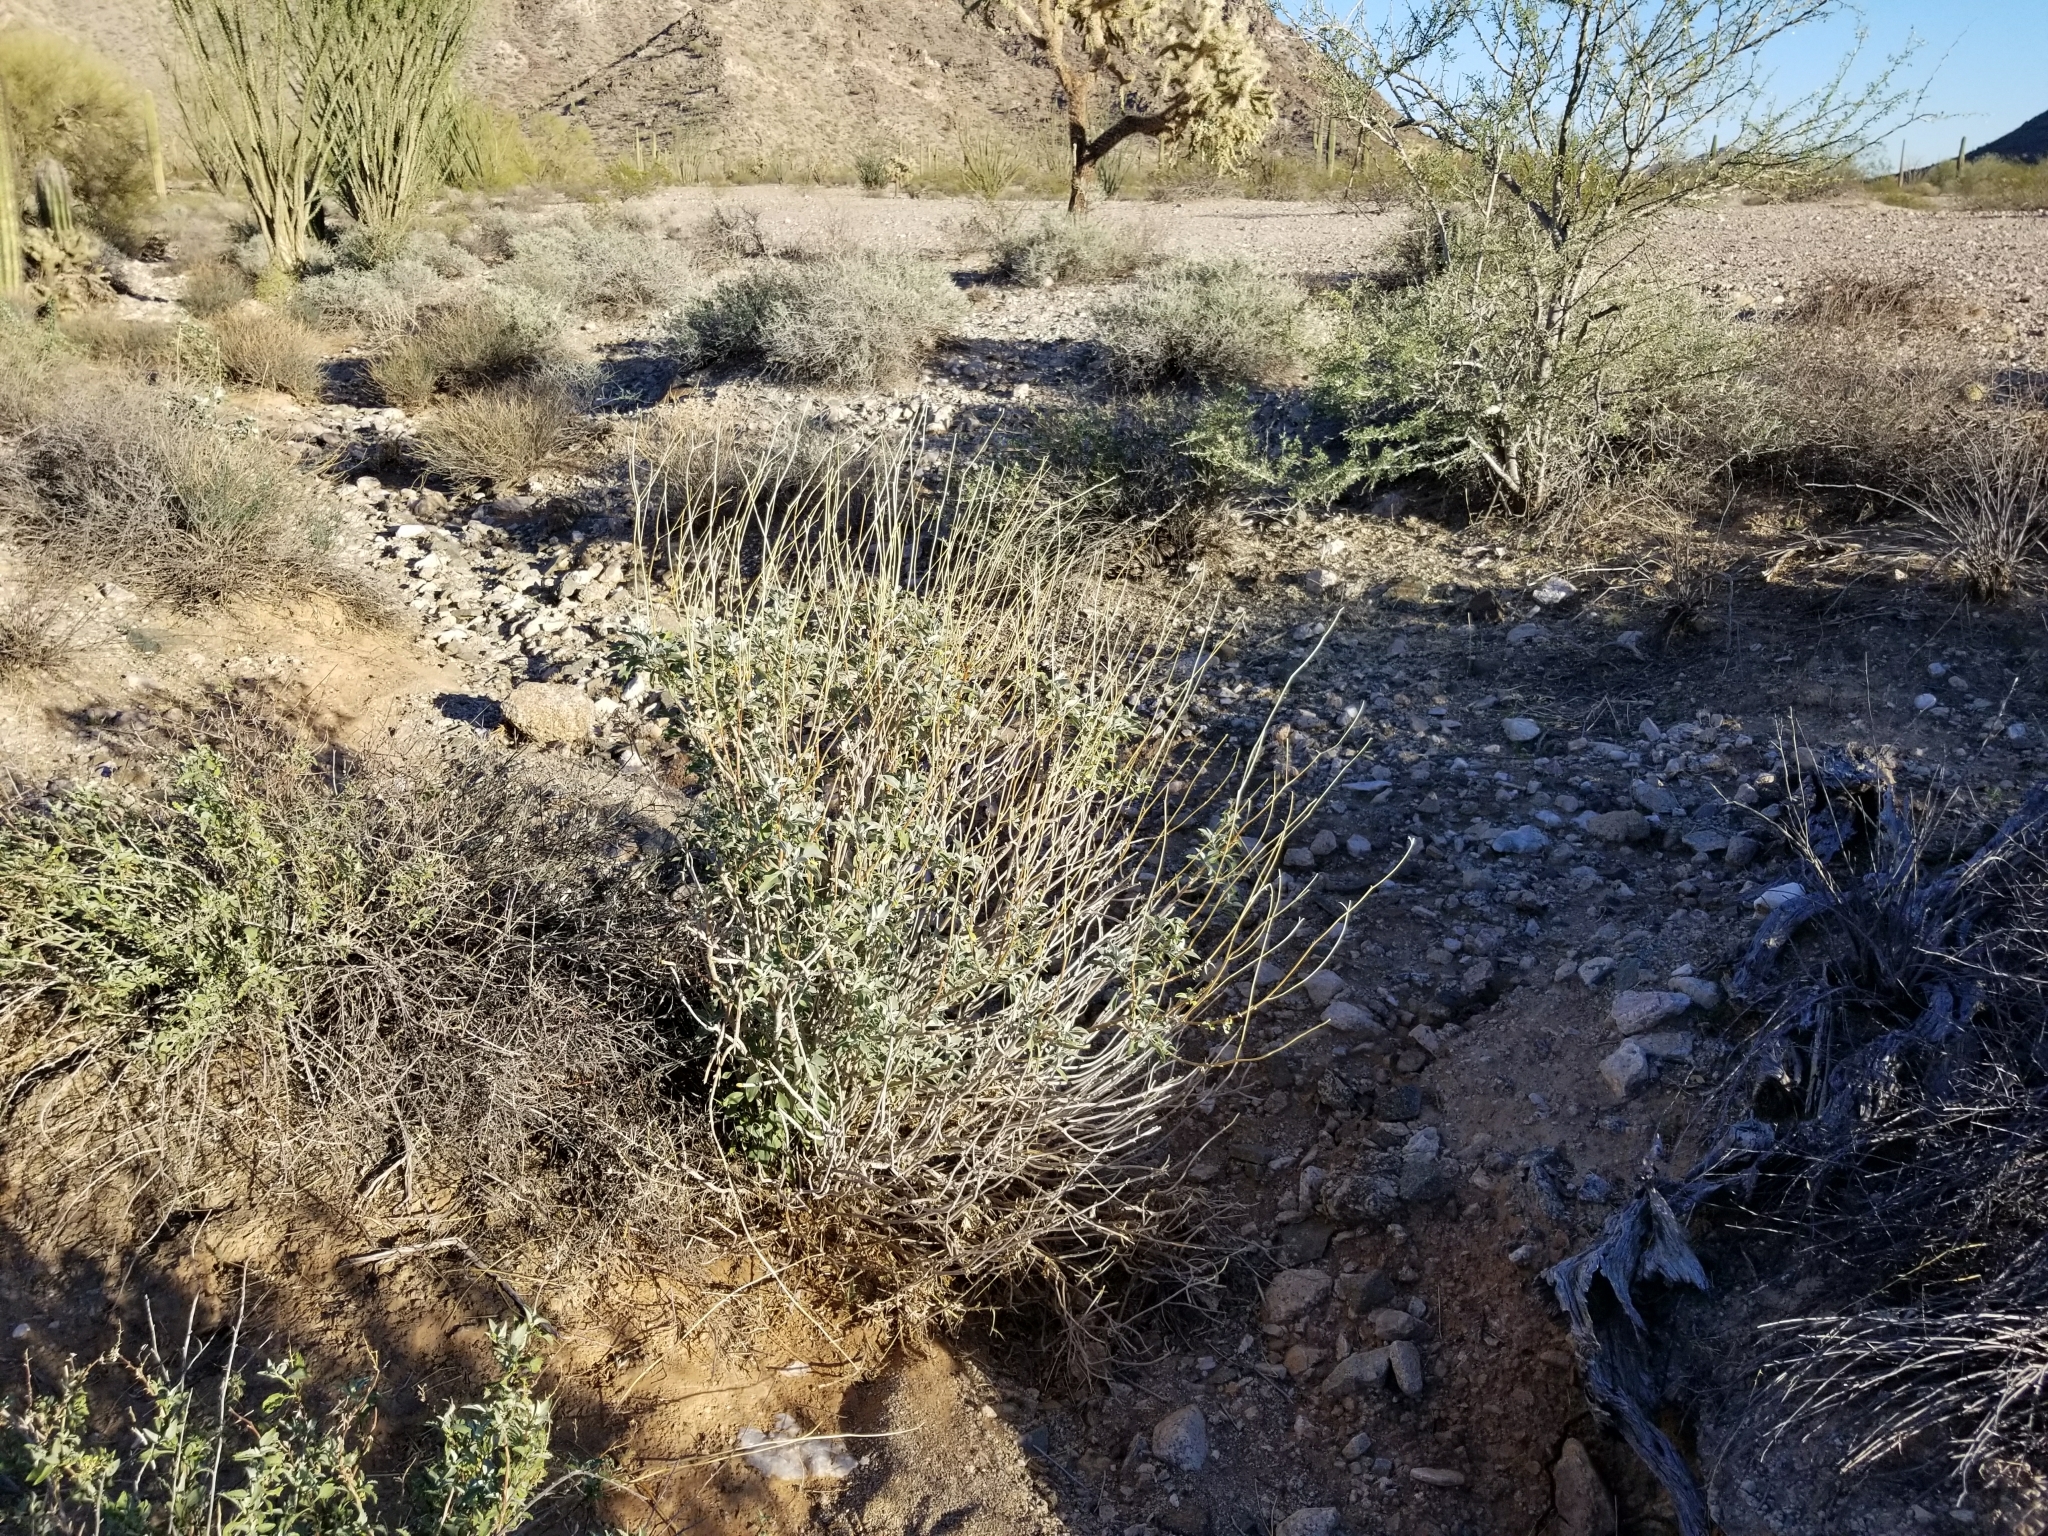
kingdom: Plantae
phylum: Tracheophyta
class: Magnoliopsida
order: Asterales
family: Asteraceae
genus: Encelia
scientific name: Encelia farinosa
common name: Brittlebush
